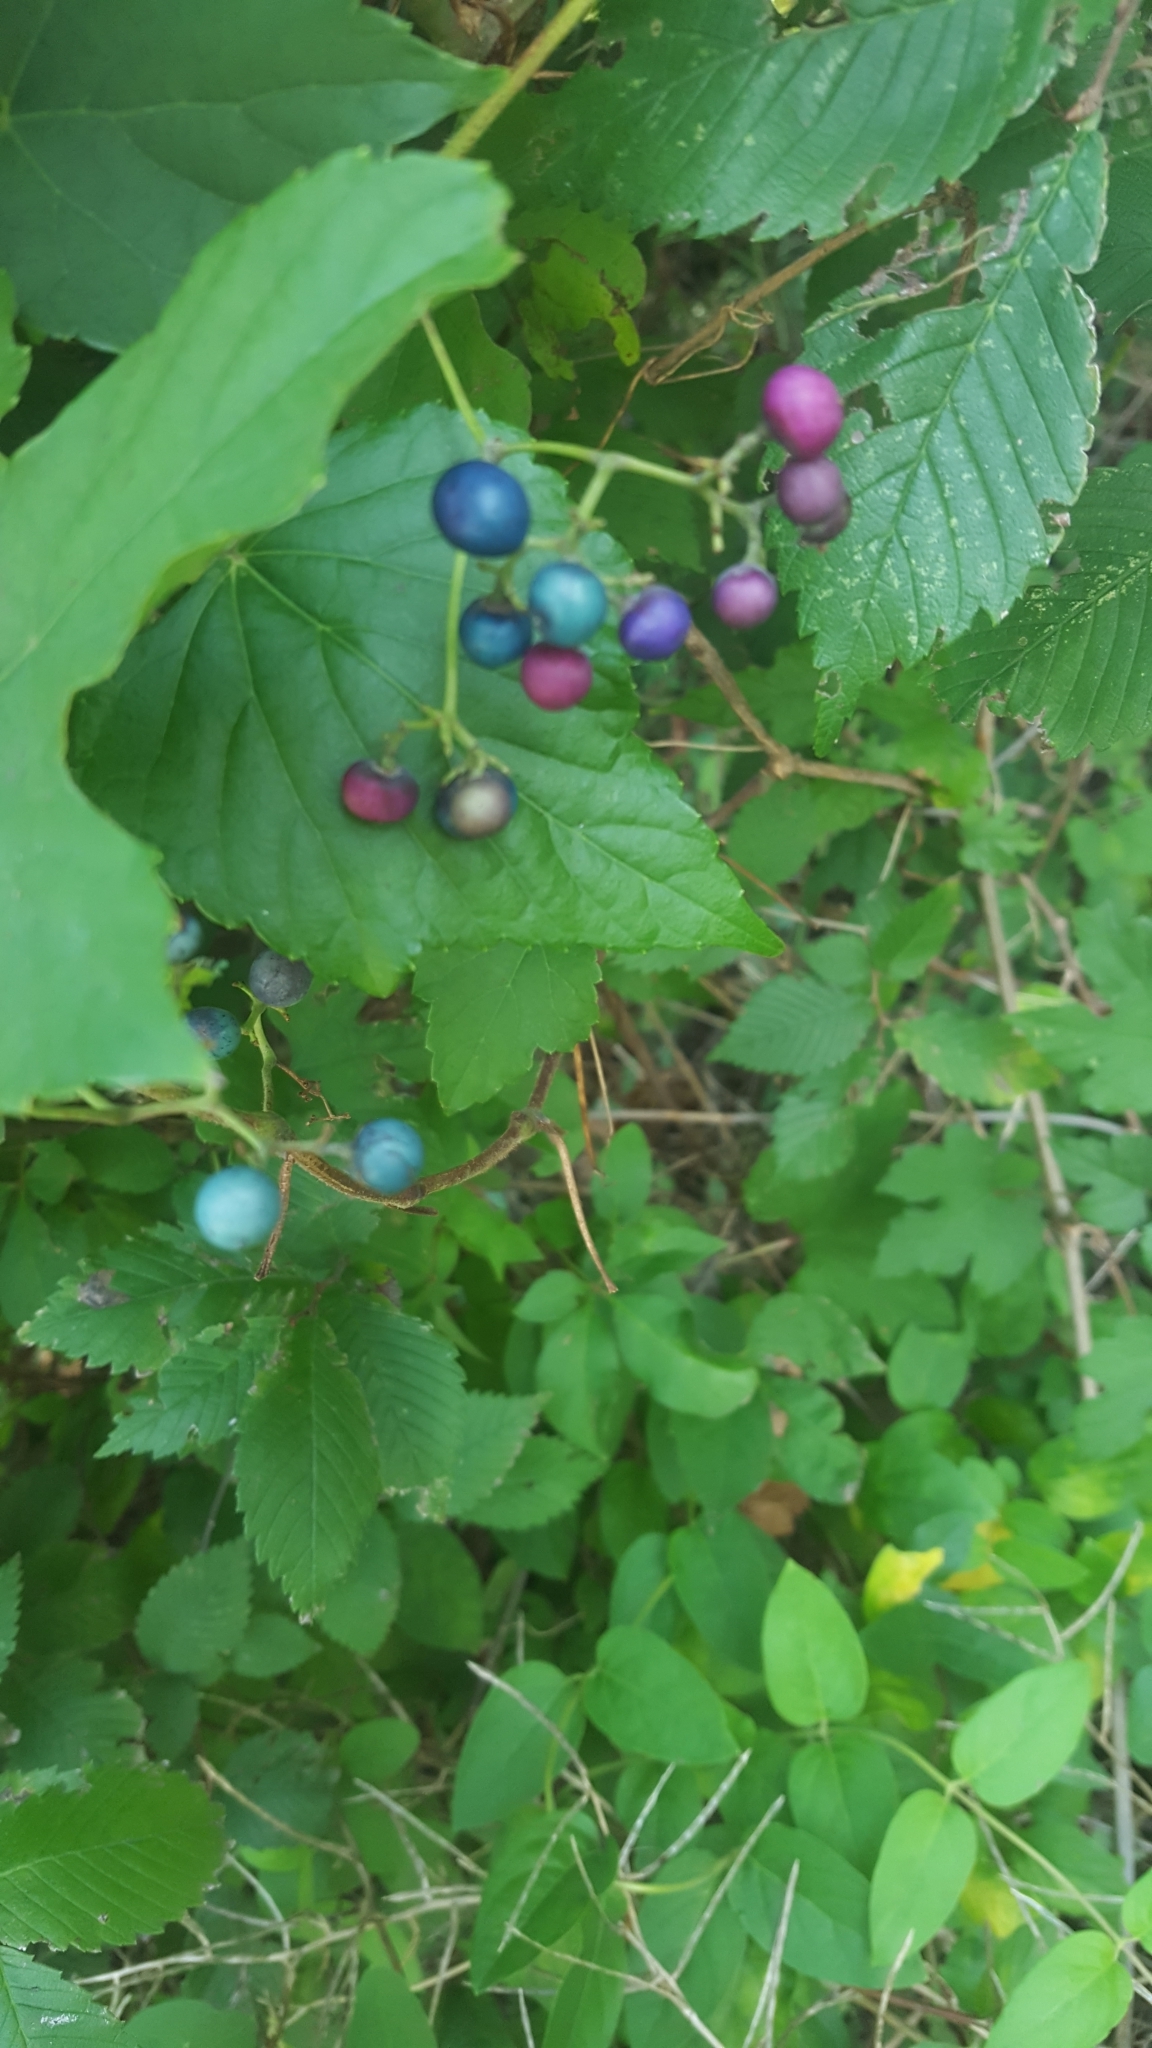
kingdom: Plantae
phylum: Tracheophyta
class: Magnoliopsida
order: Vitales
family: Vitaceae
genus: Ampelopsis
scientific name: Ampelopsis glandulosa
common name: Amur peppervine
